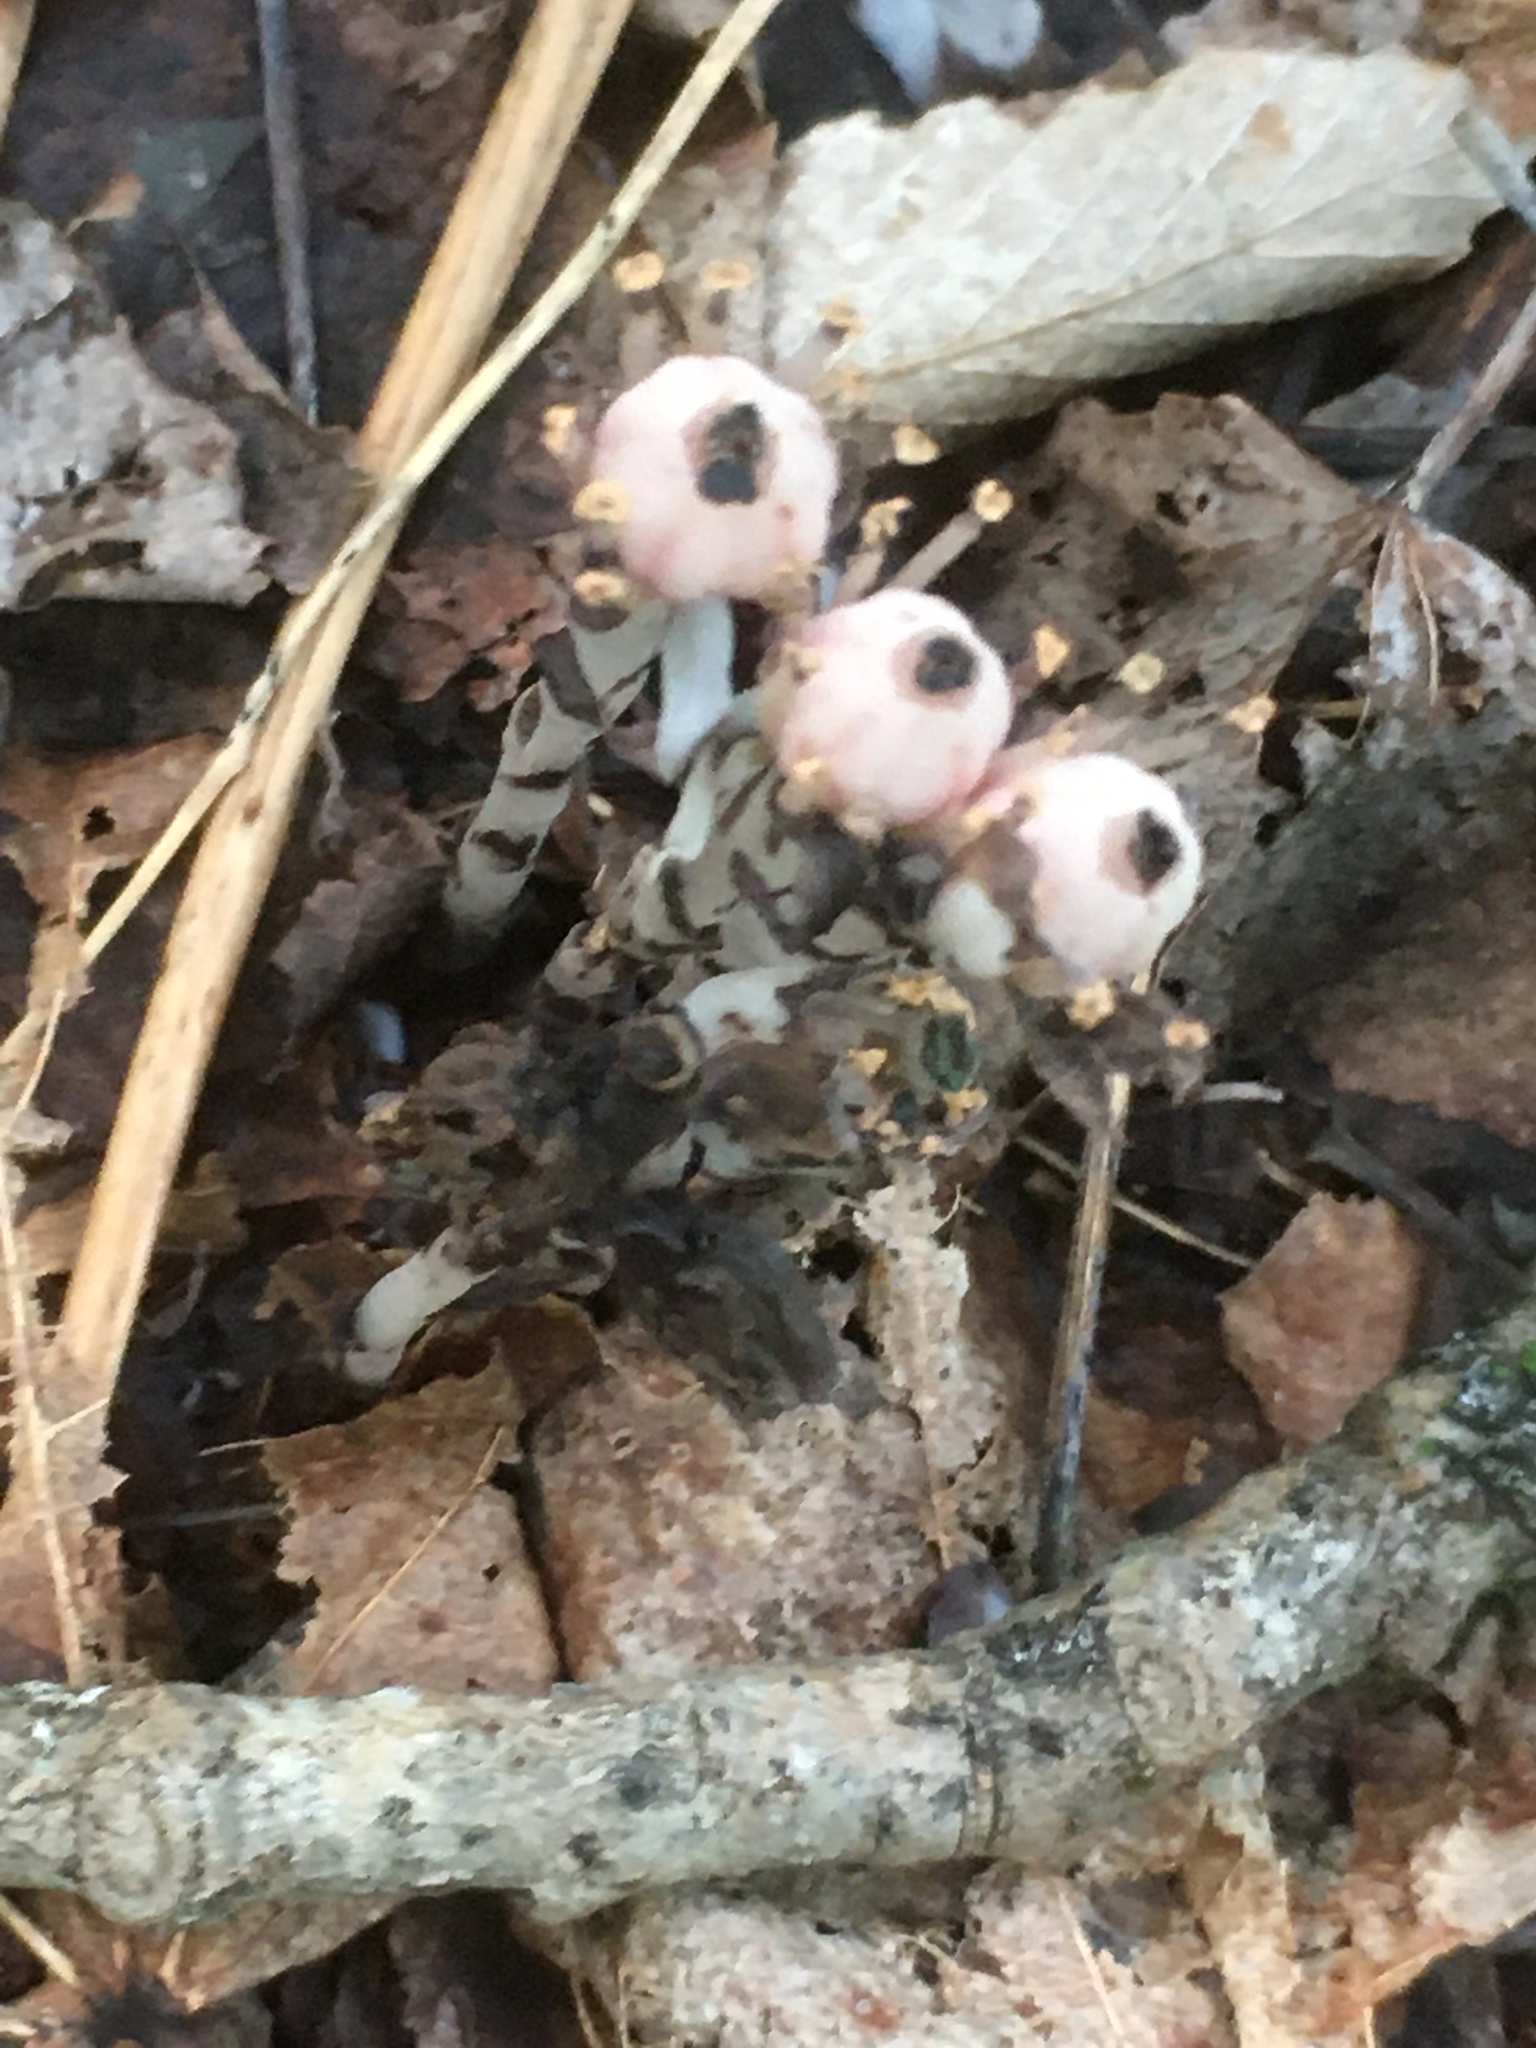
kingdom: Plantae
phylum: Tracheophyta
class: Magnoliopsida
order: Ericales
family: Ericaceae
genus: Monotropa
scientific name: Monotropa uniflora
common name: Convulsion root
